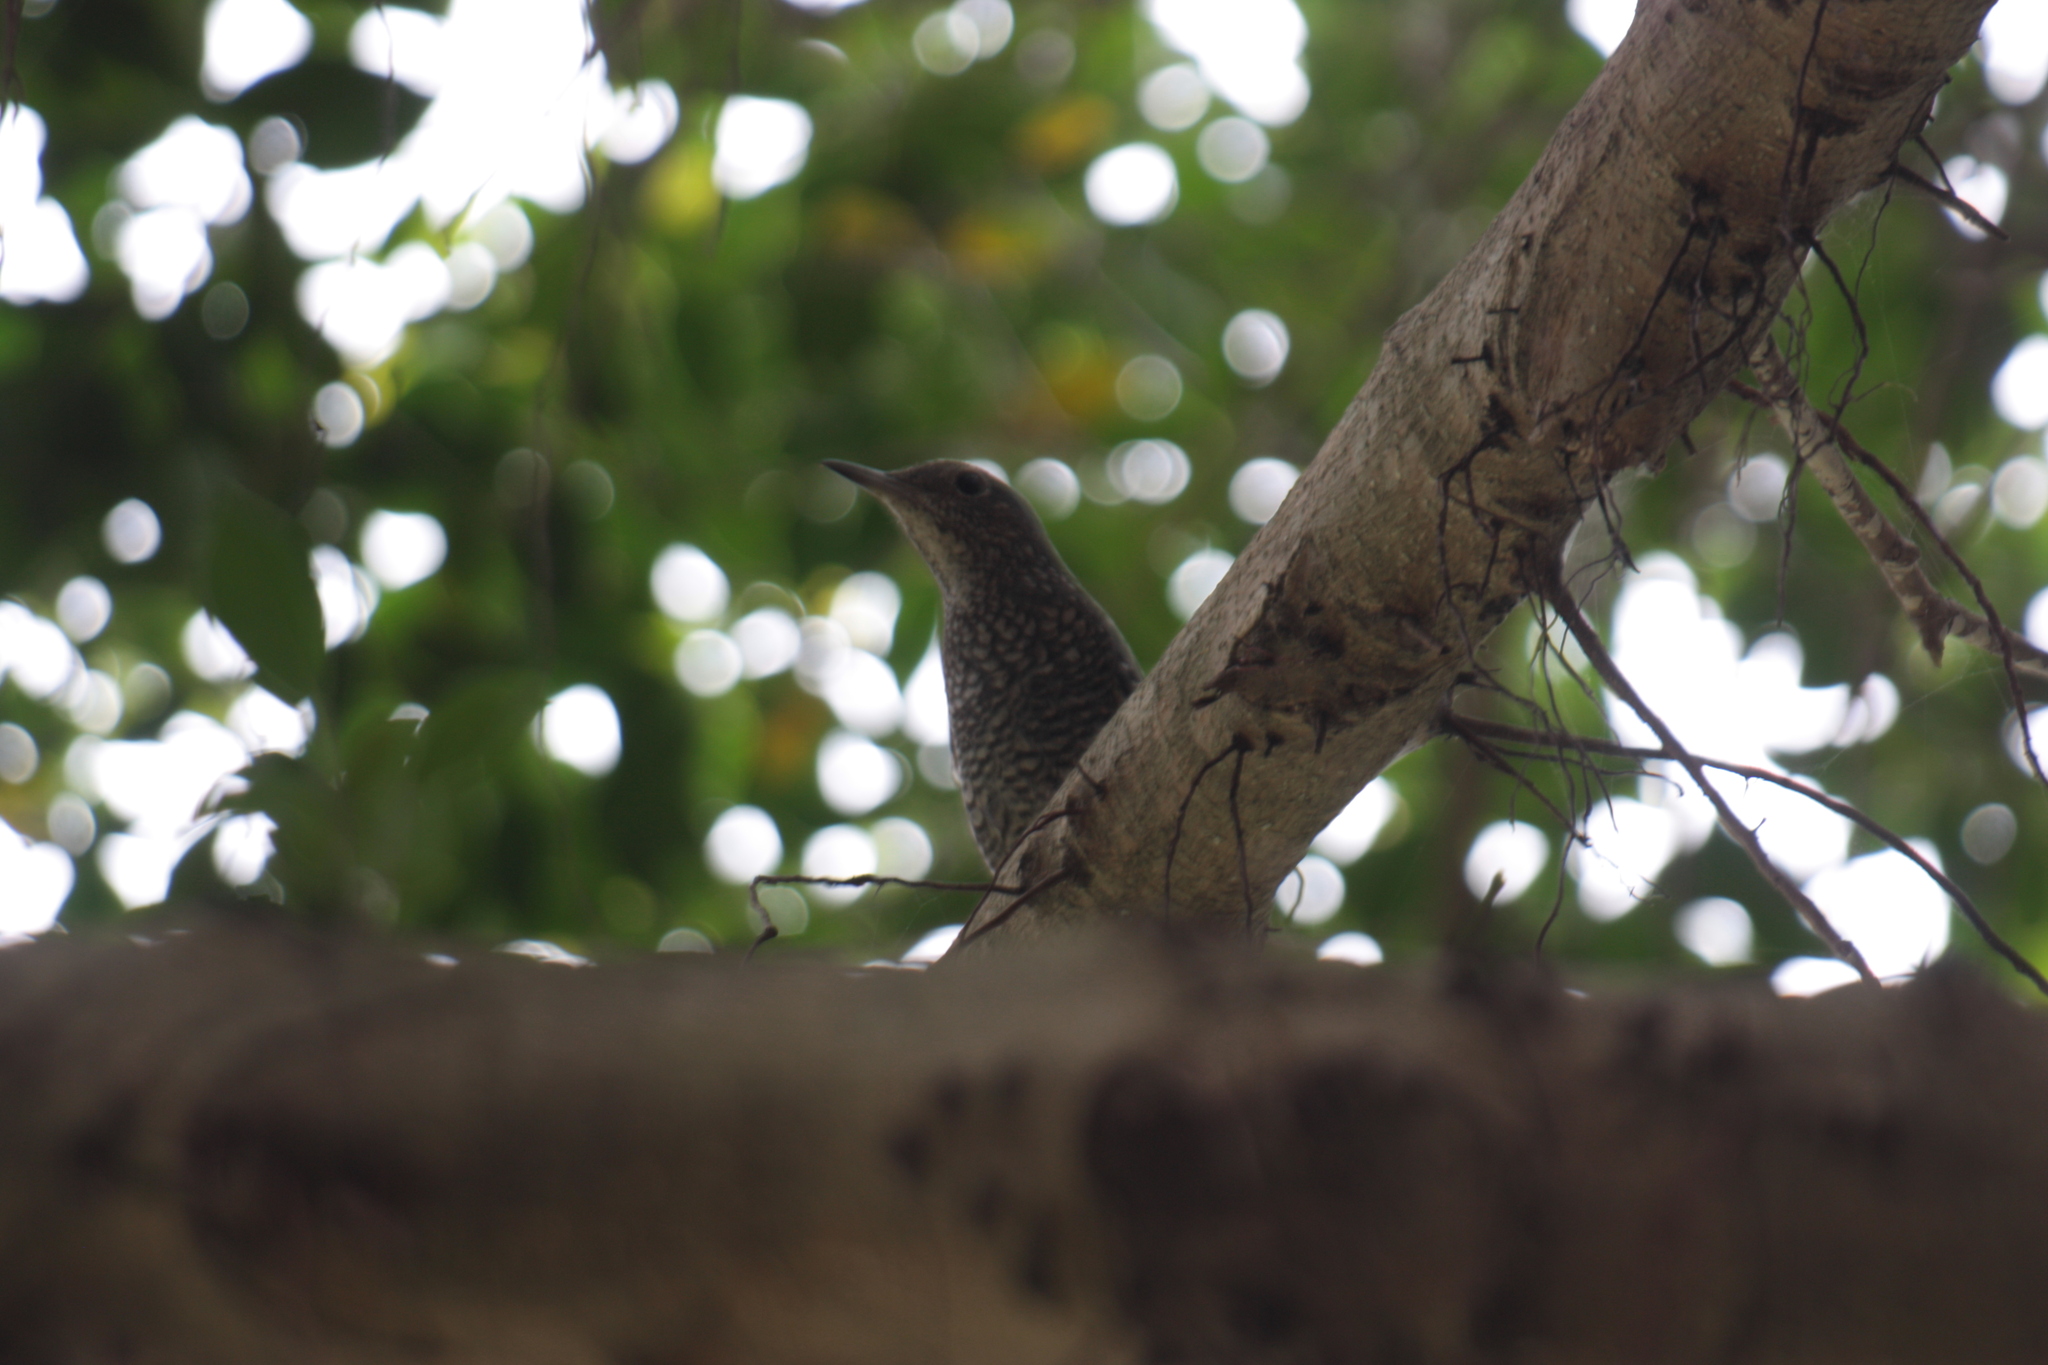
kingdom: Animalia
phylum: Chordata
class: Aves
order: Passeriformes
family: Muscicapidae
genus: Monticola
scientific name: Monticola solitarius
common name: Blue rock thrush
